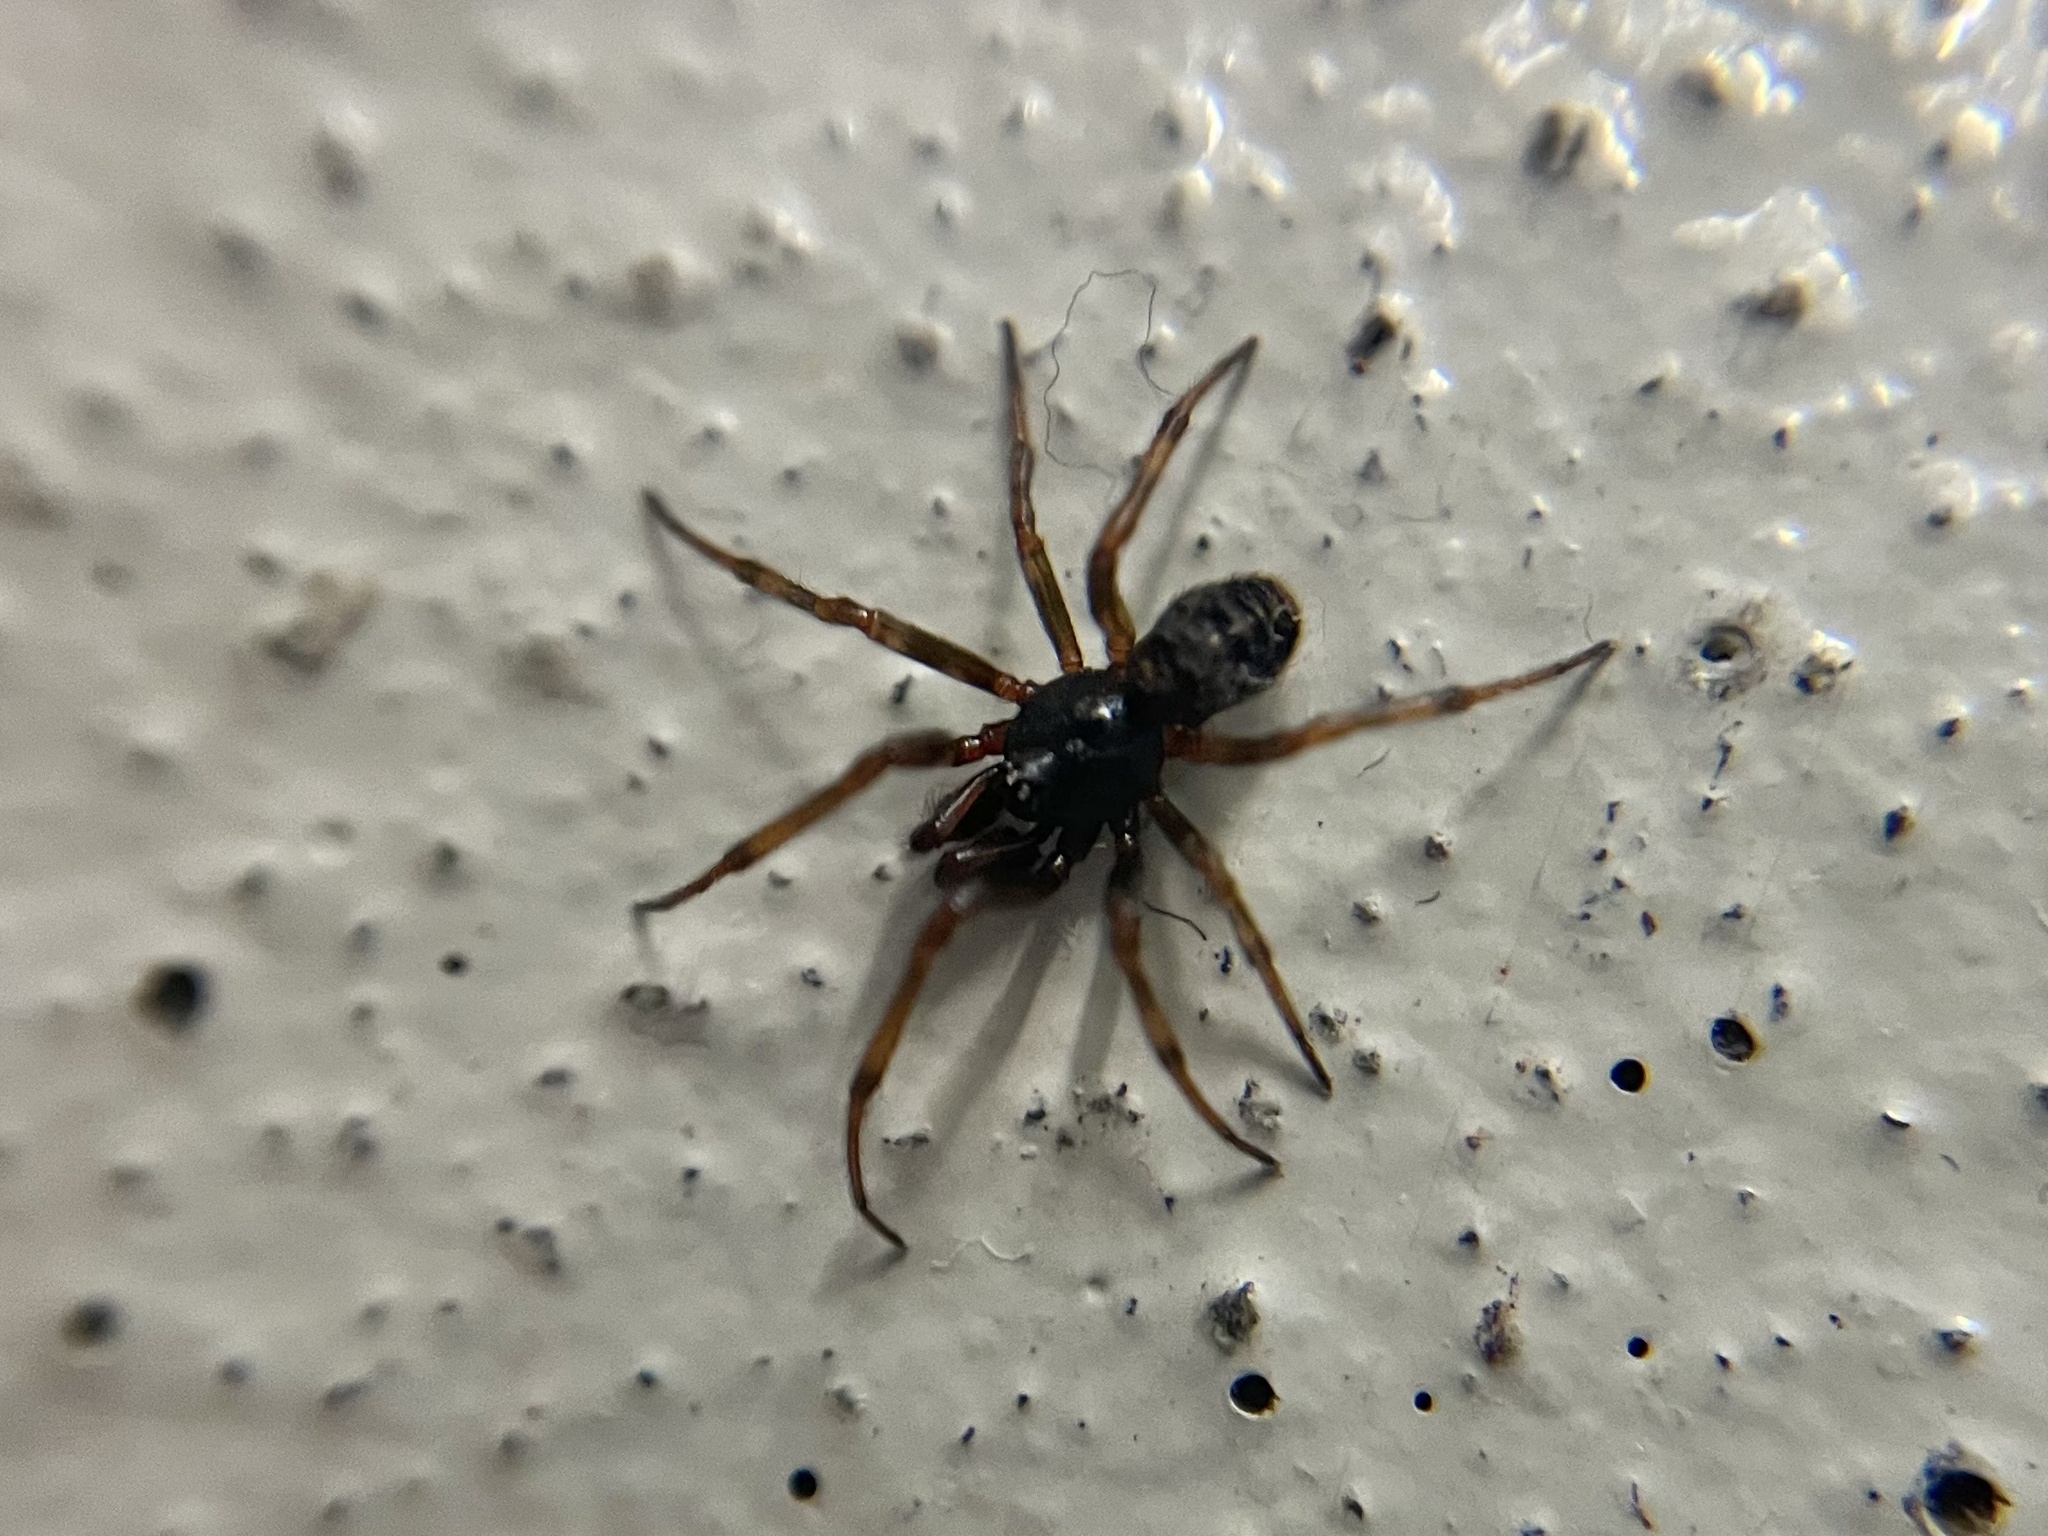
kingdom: Animalia
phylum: Arthropoda
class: Arachnida
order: Araneae
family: Theridiidae
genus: Steatoda
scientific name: Steatoda bipunctata
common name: False widow
